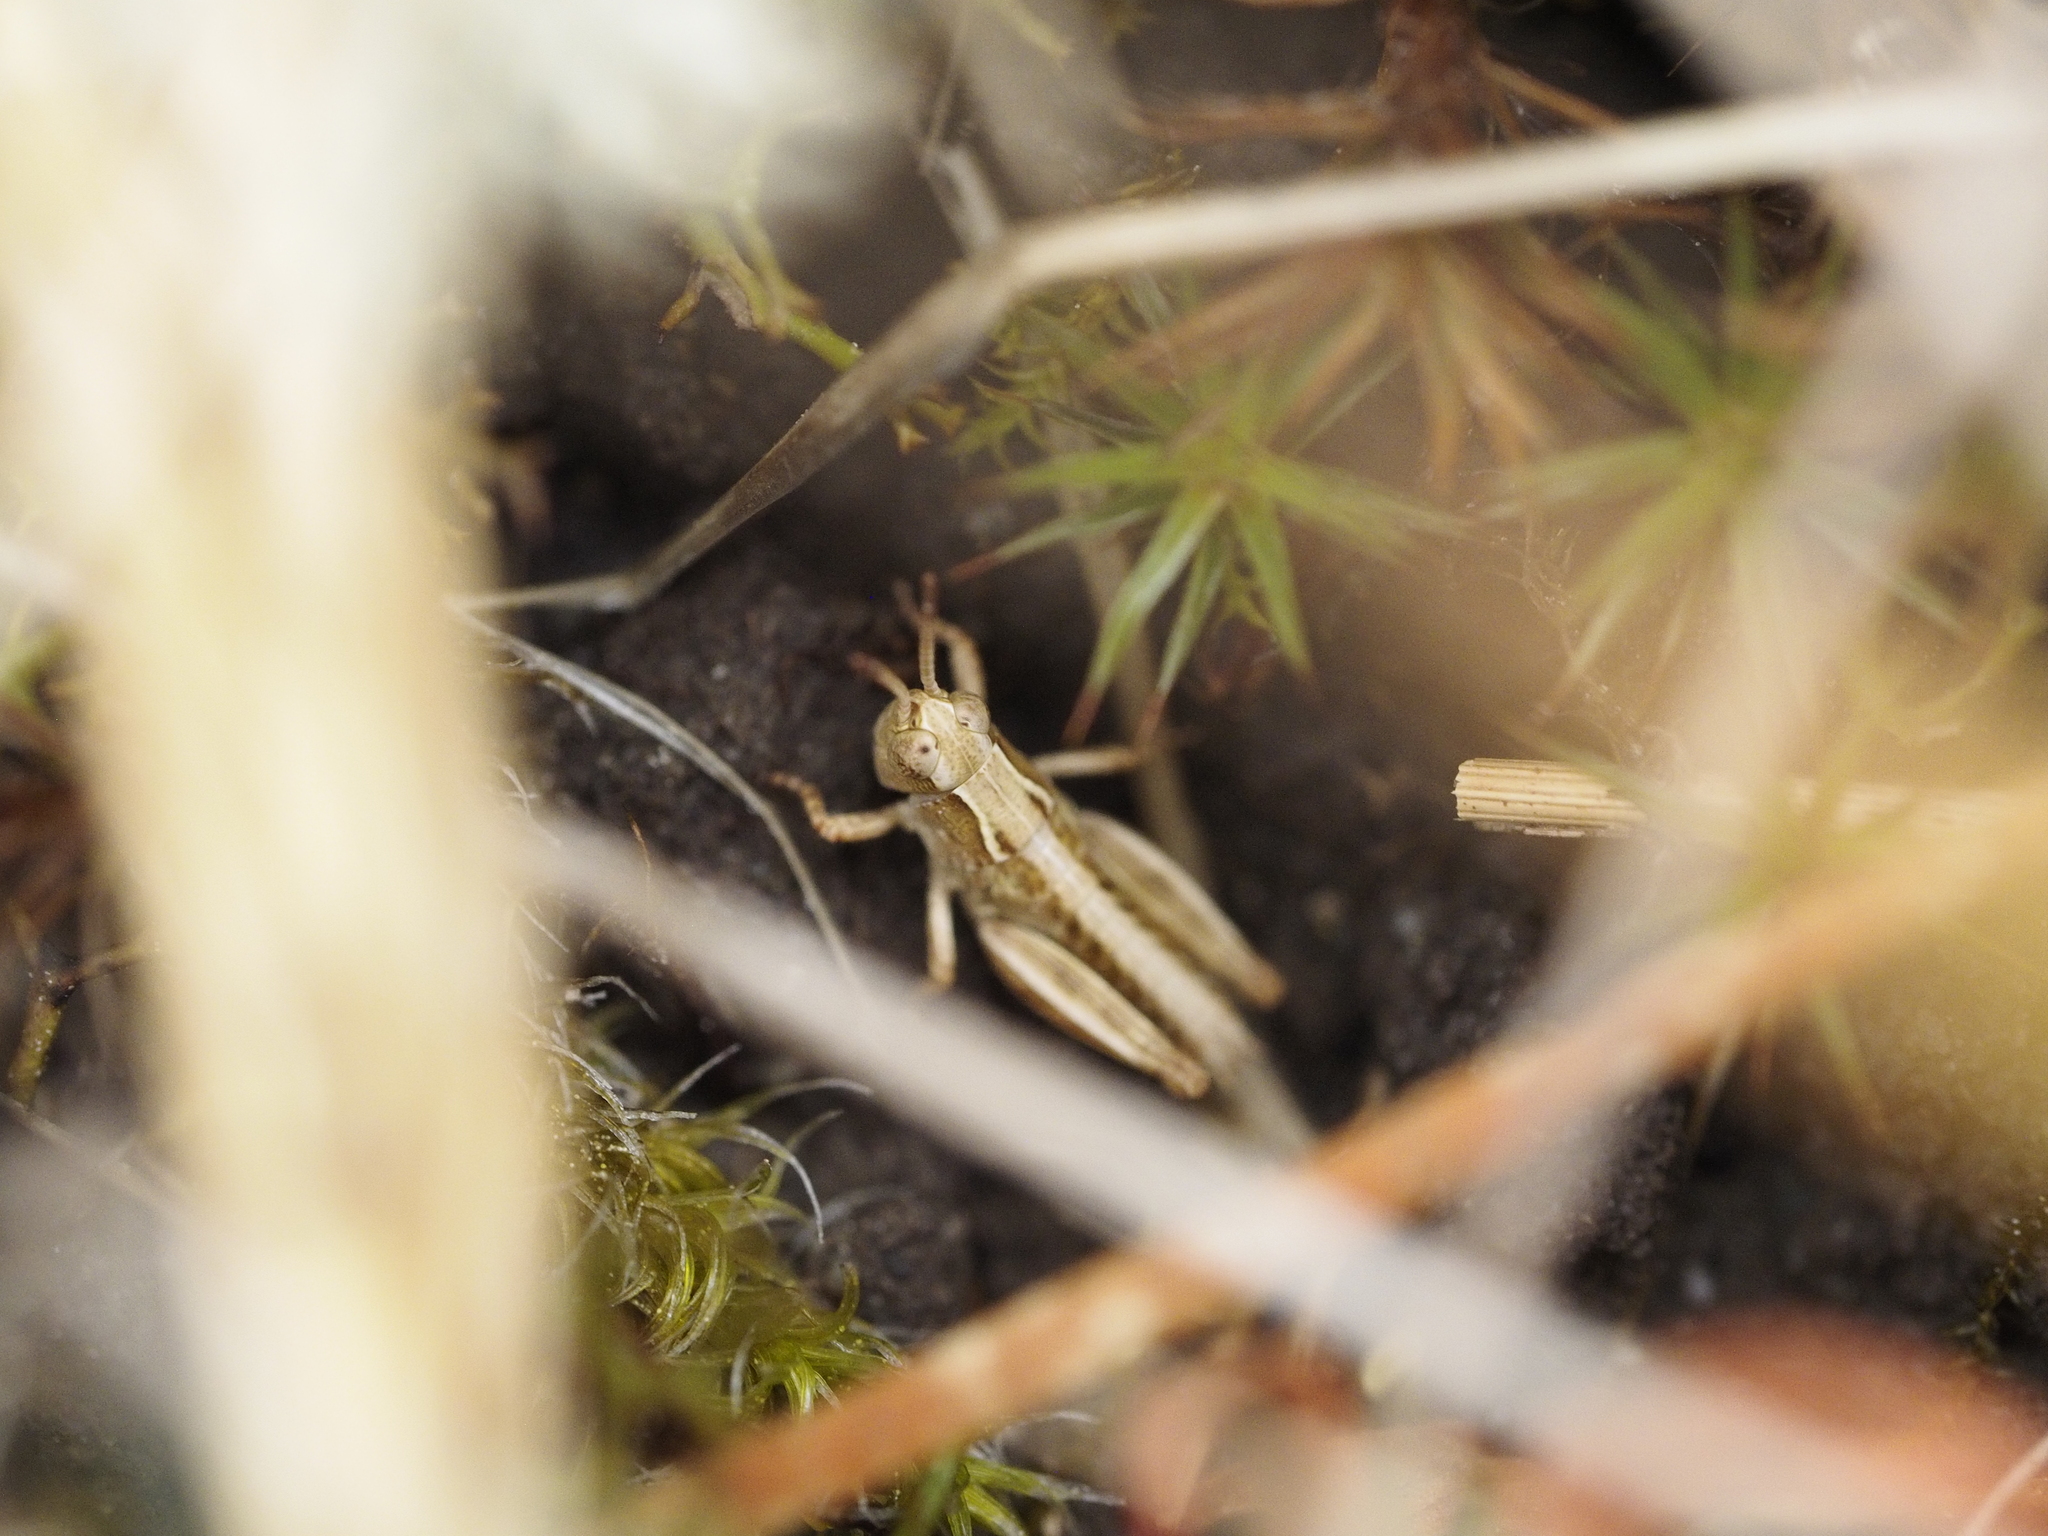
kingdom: Animalia
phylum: Arthropoda
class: Insecta
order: Orthoptera
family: Acrididae
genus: Phaulacridium
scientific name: Phaulacridium marginale
